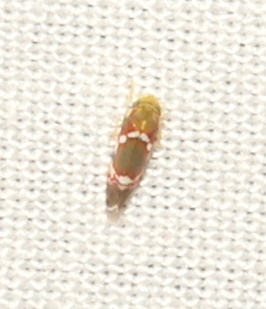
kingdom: Animalia
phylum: Arthropoda
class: Insecta
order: Hemiptera
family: Cicadellidae
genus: Erythroneura
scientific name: Erythroneura vitis
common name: Grapevine leafhopper
